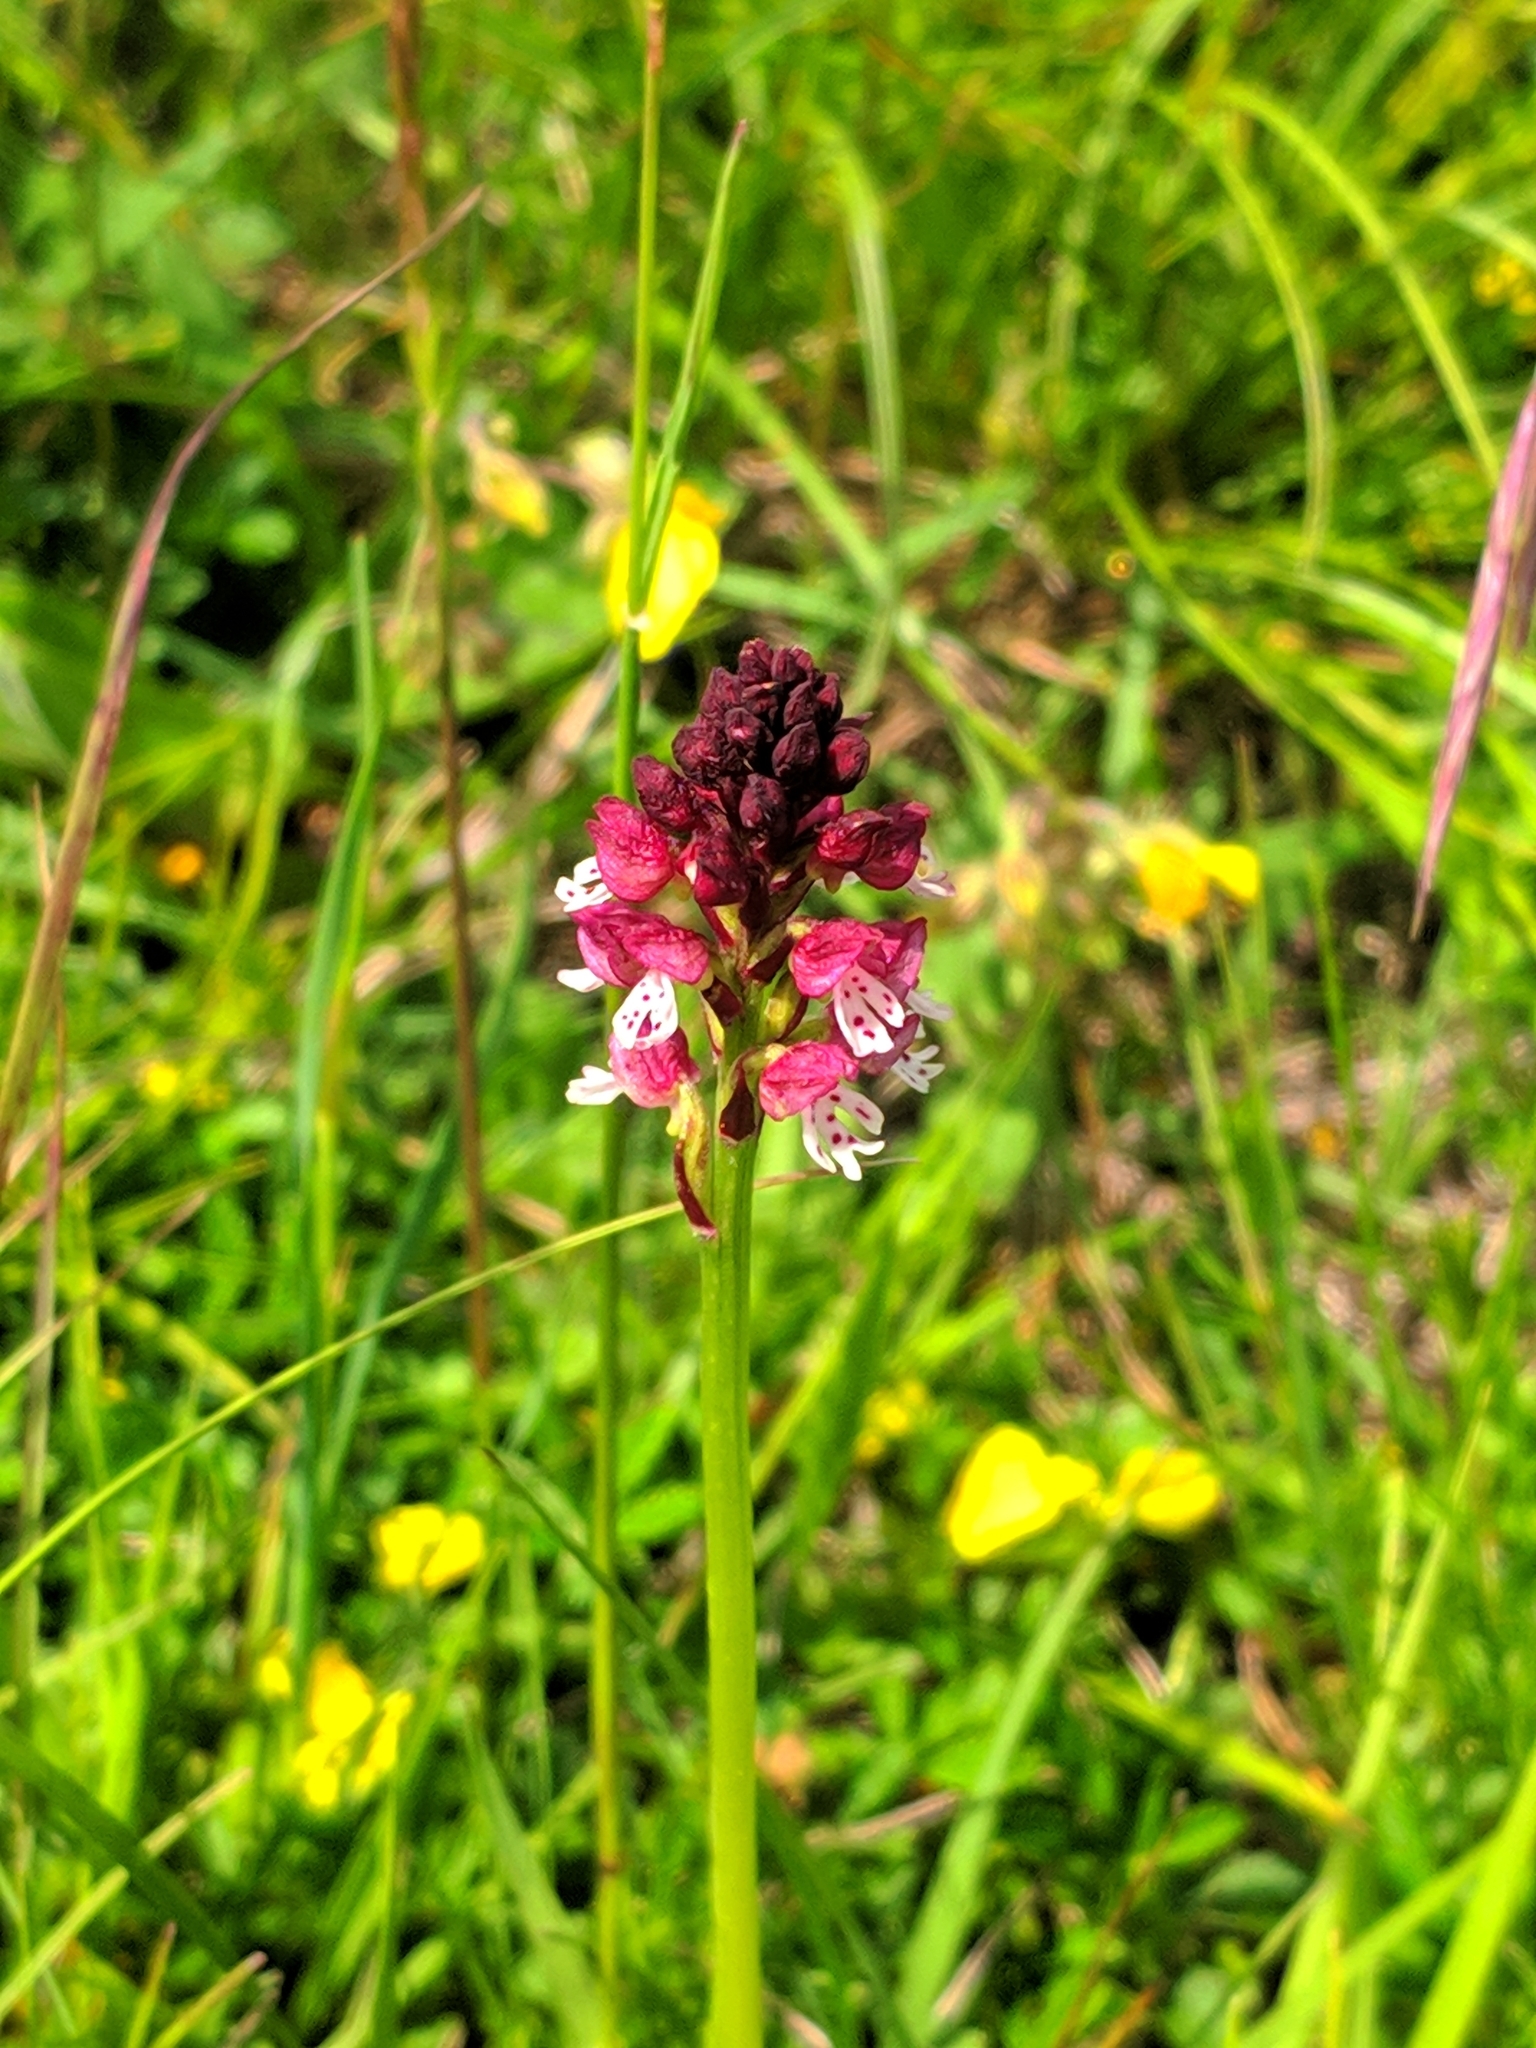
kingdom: Plantae
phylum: Tracheophyta
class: Liliopsida
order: Asparagales
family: Orchidaceae
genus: Neotinea
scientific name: Neotinea ustulata
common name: Burnt orchid
